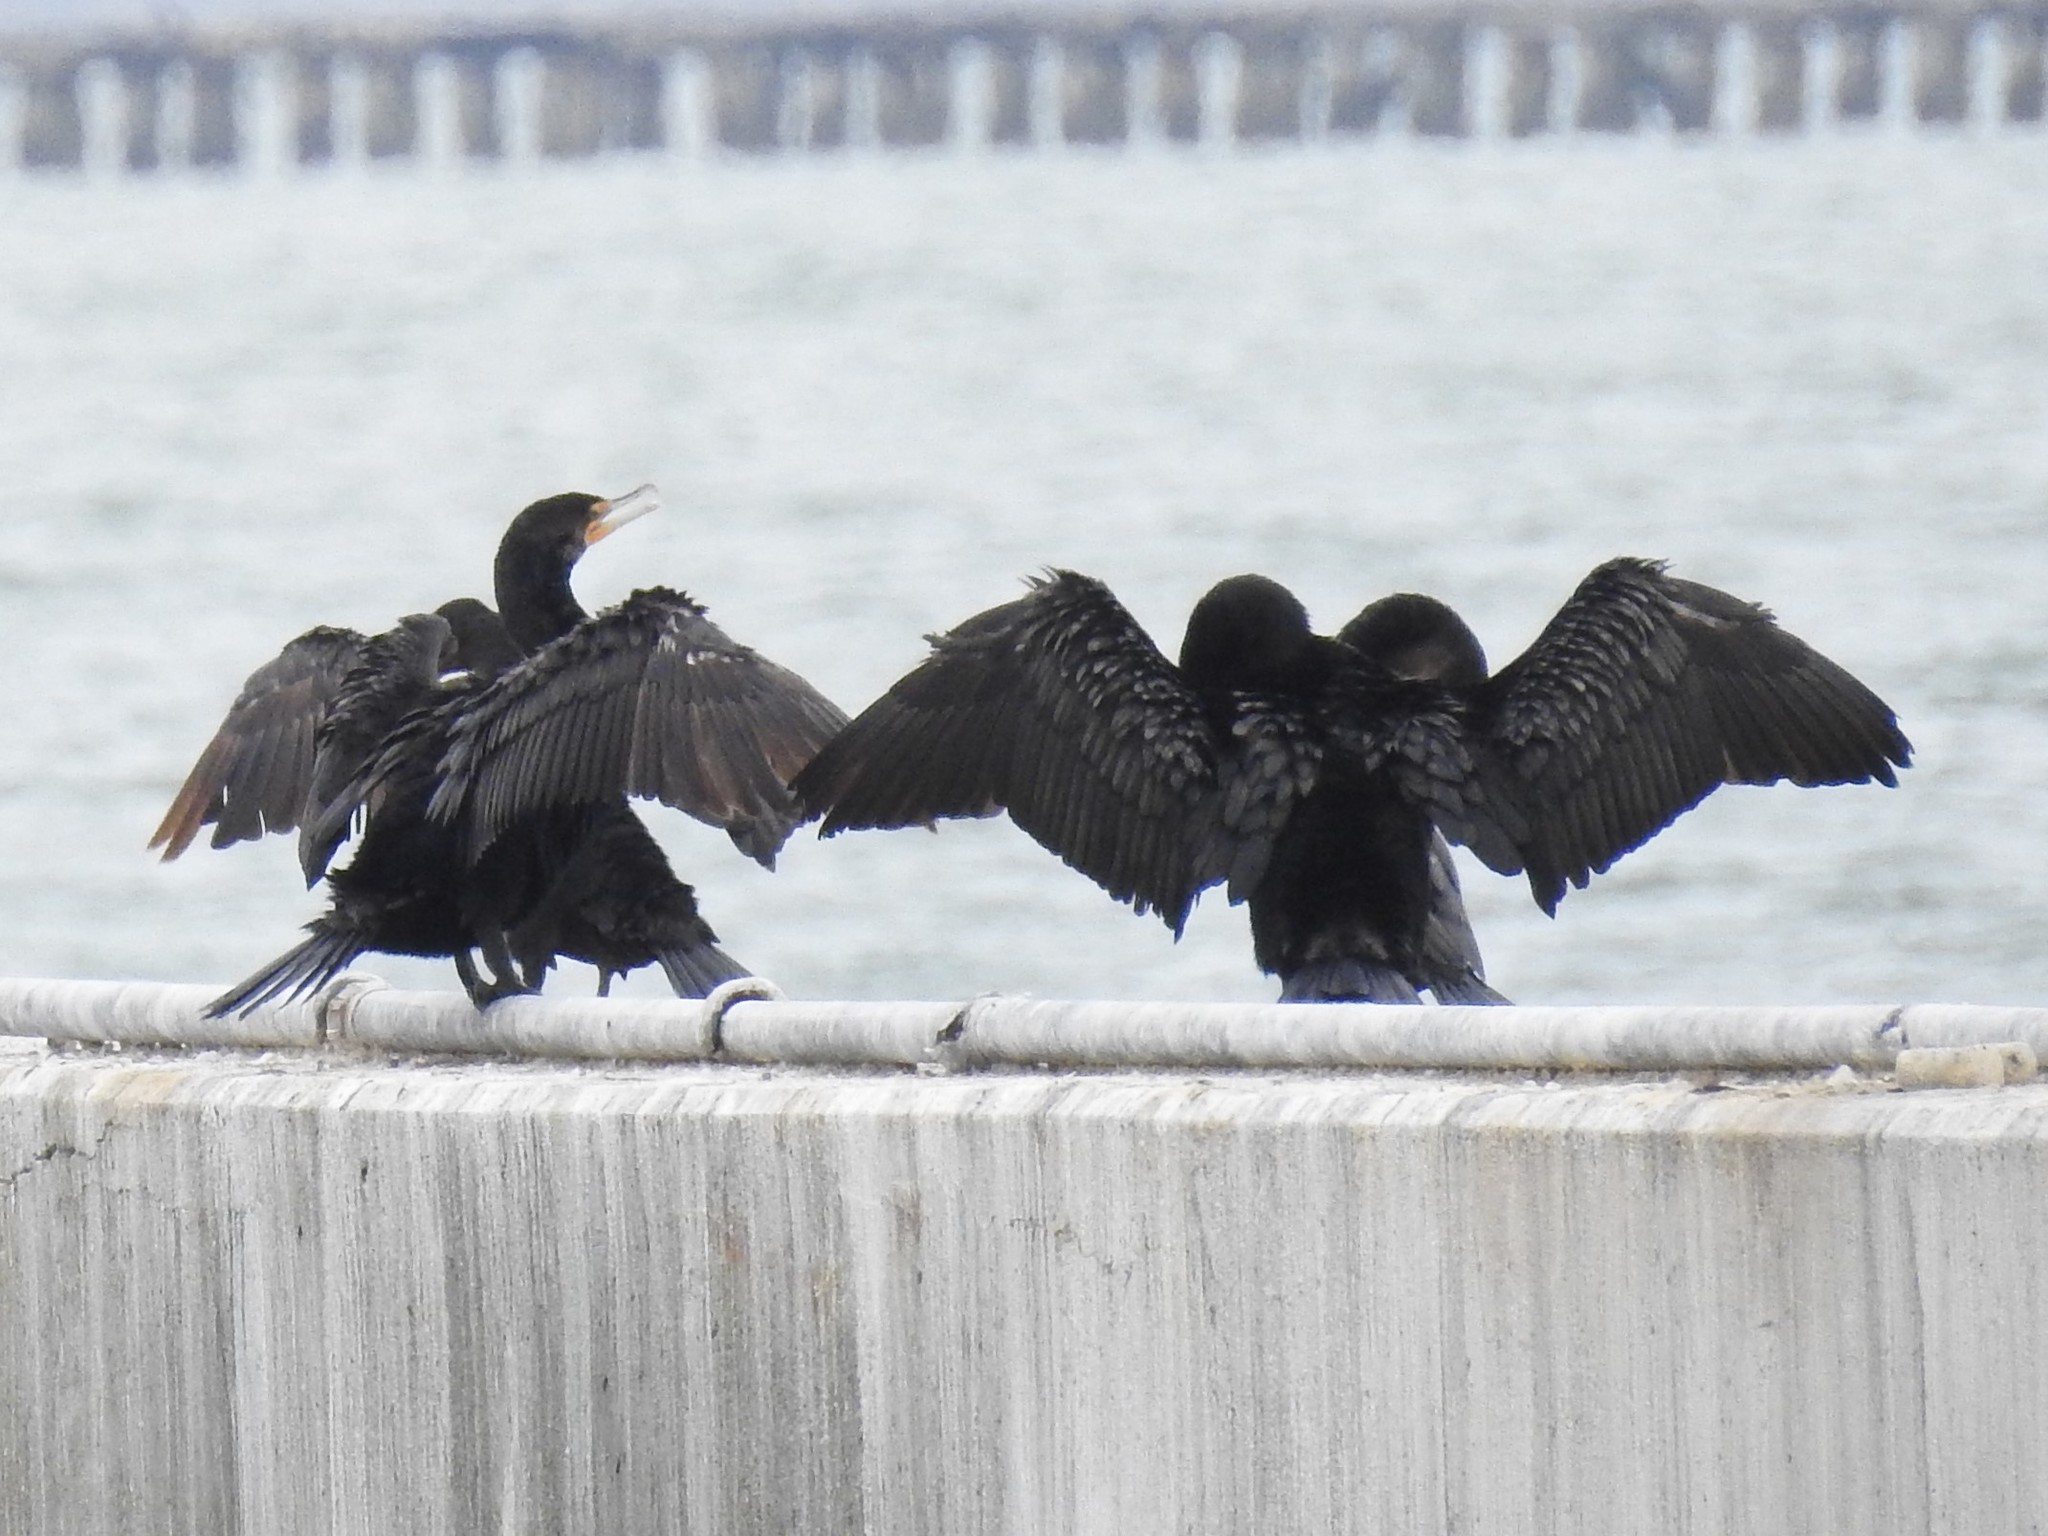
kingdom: Animalia
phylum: Chordata
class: Aves
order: Suliformes
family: Phalacrocoracidae
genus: Phalacrocorax
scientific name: Phalacrocorax auritus
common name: Double-crested cormorant
